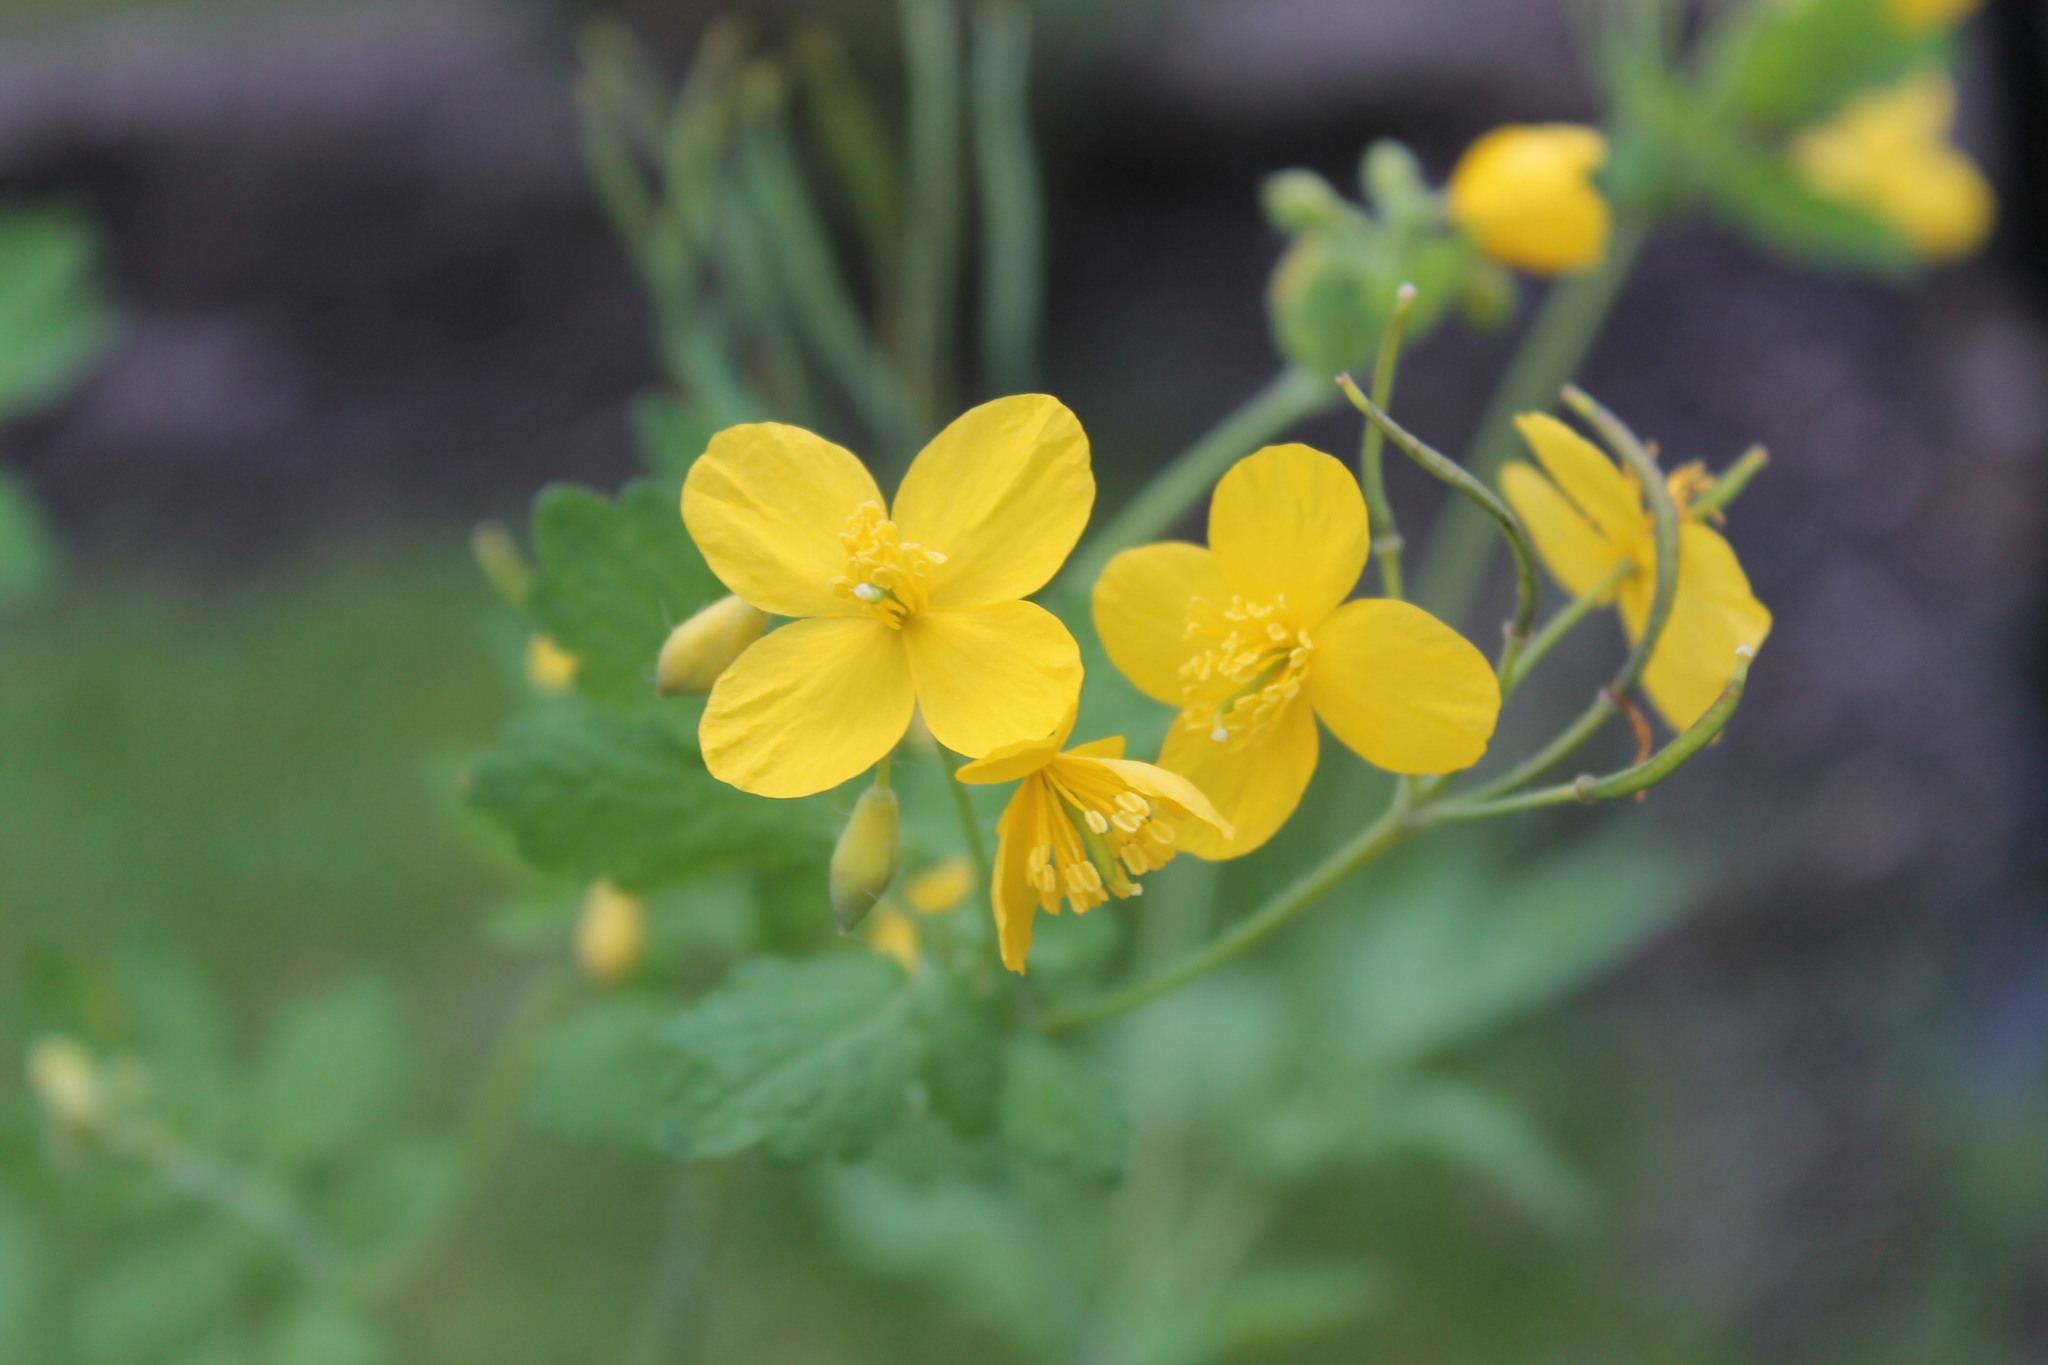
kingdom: Plantae
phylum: Tracheophyta
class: Magnoliopsida
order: Ranunculales
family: Papaveraceae
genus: Chelidonium
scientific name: Chelidonium majus
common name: Greater celandine
